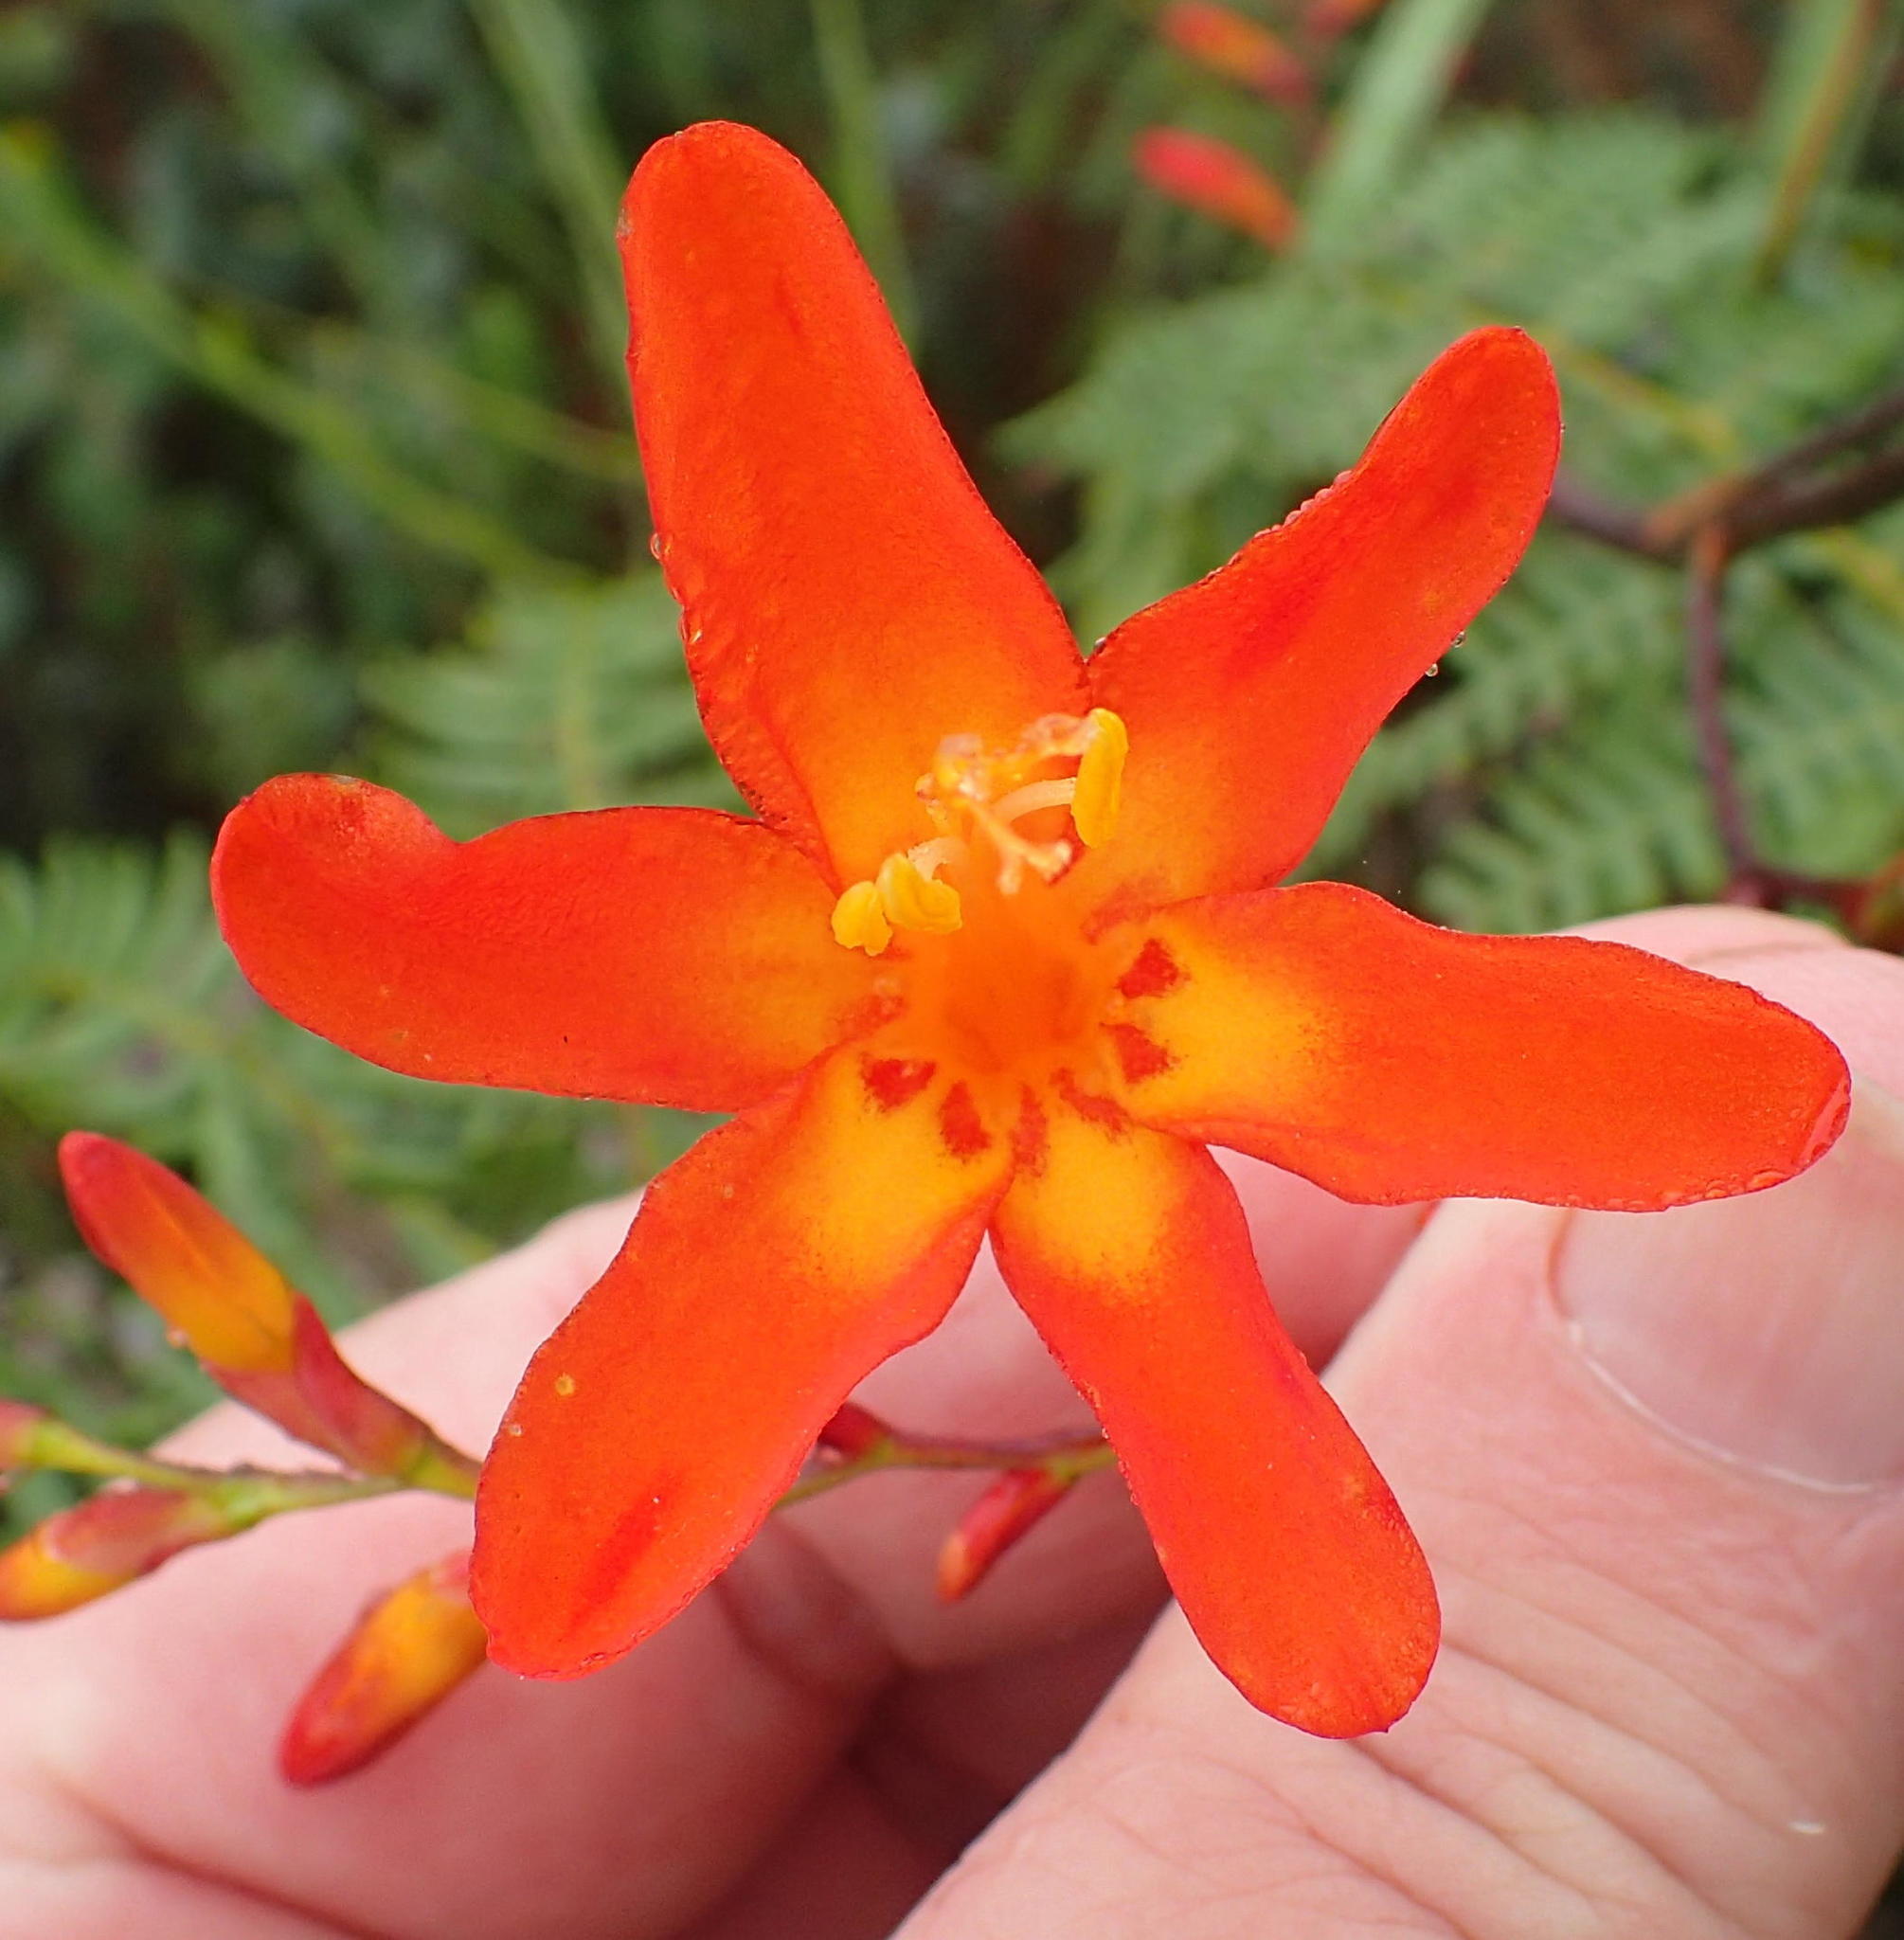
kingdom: Plantae
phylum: Tracheophyta
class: Liliopsida
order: Asparagales
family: Iridaceae
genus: Crocosmia
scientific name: Crocosmia crocosmiiflora
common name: Montbretia
